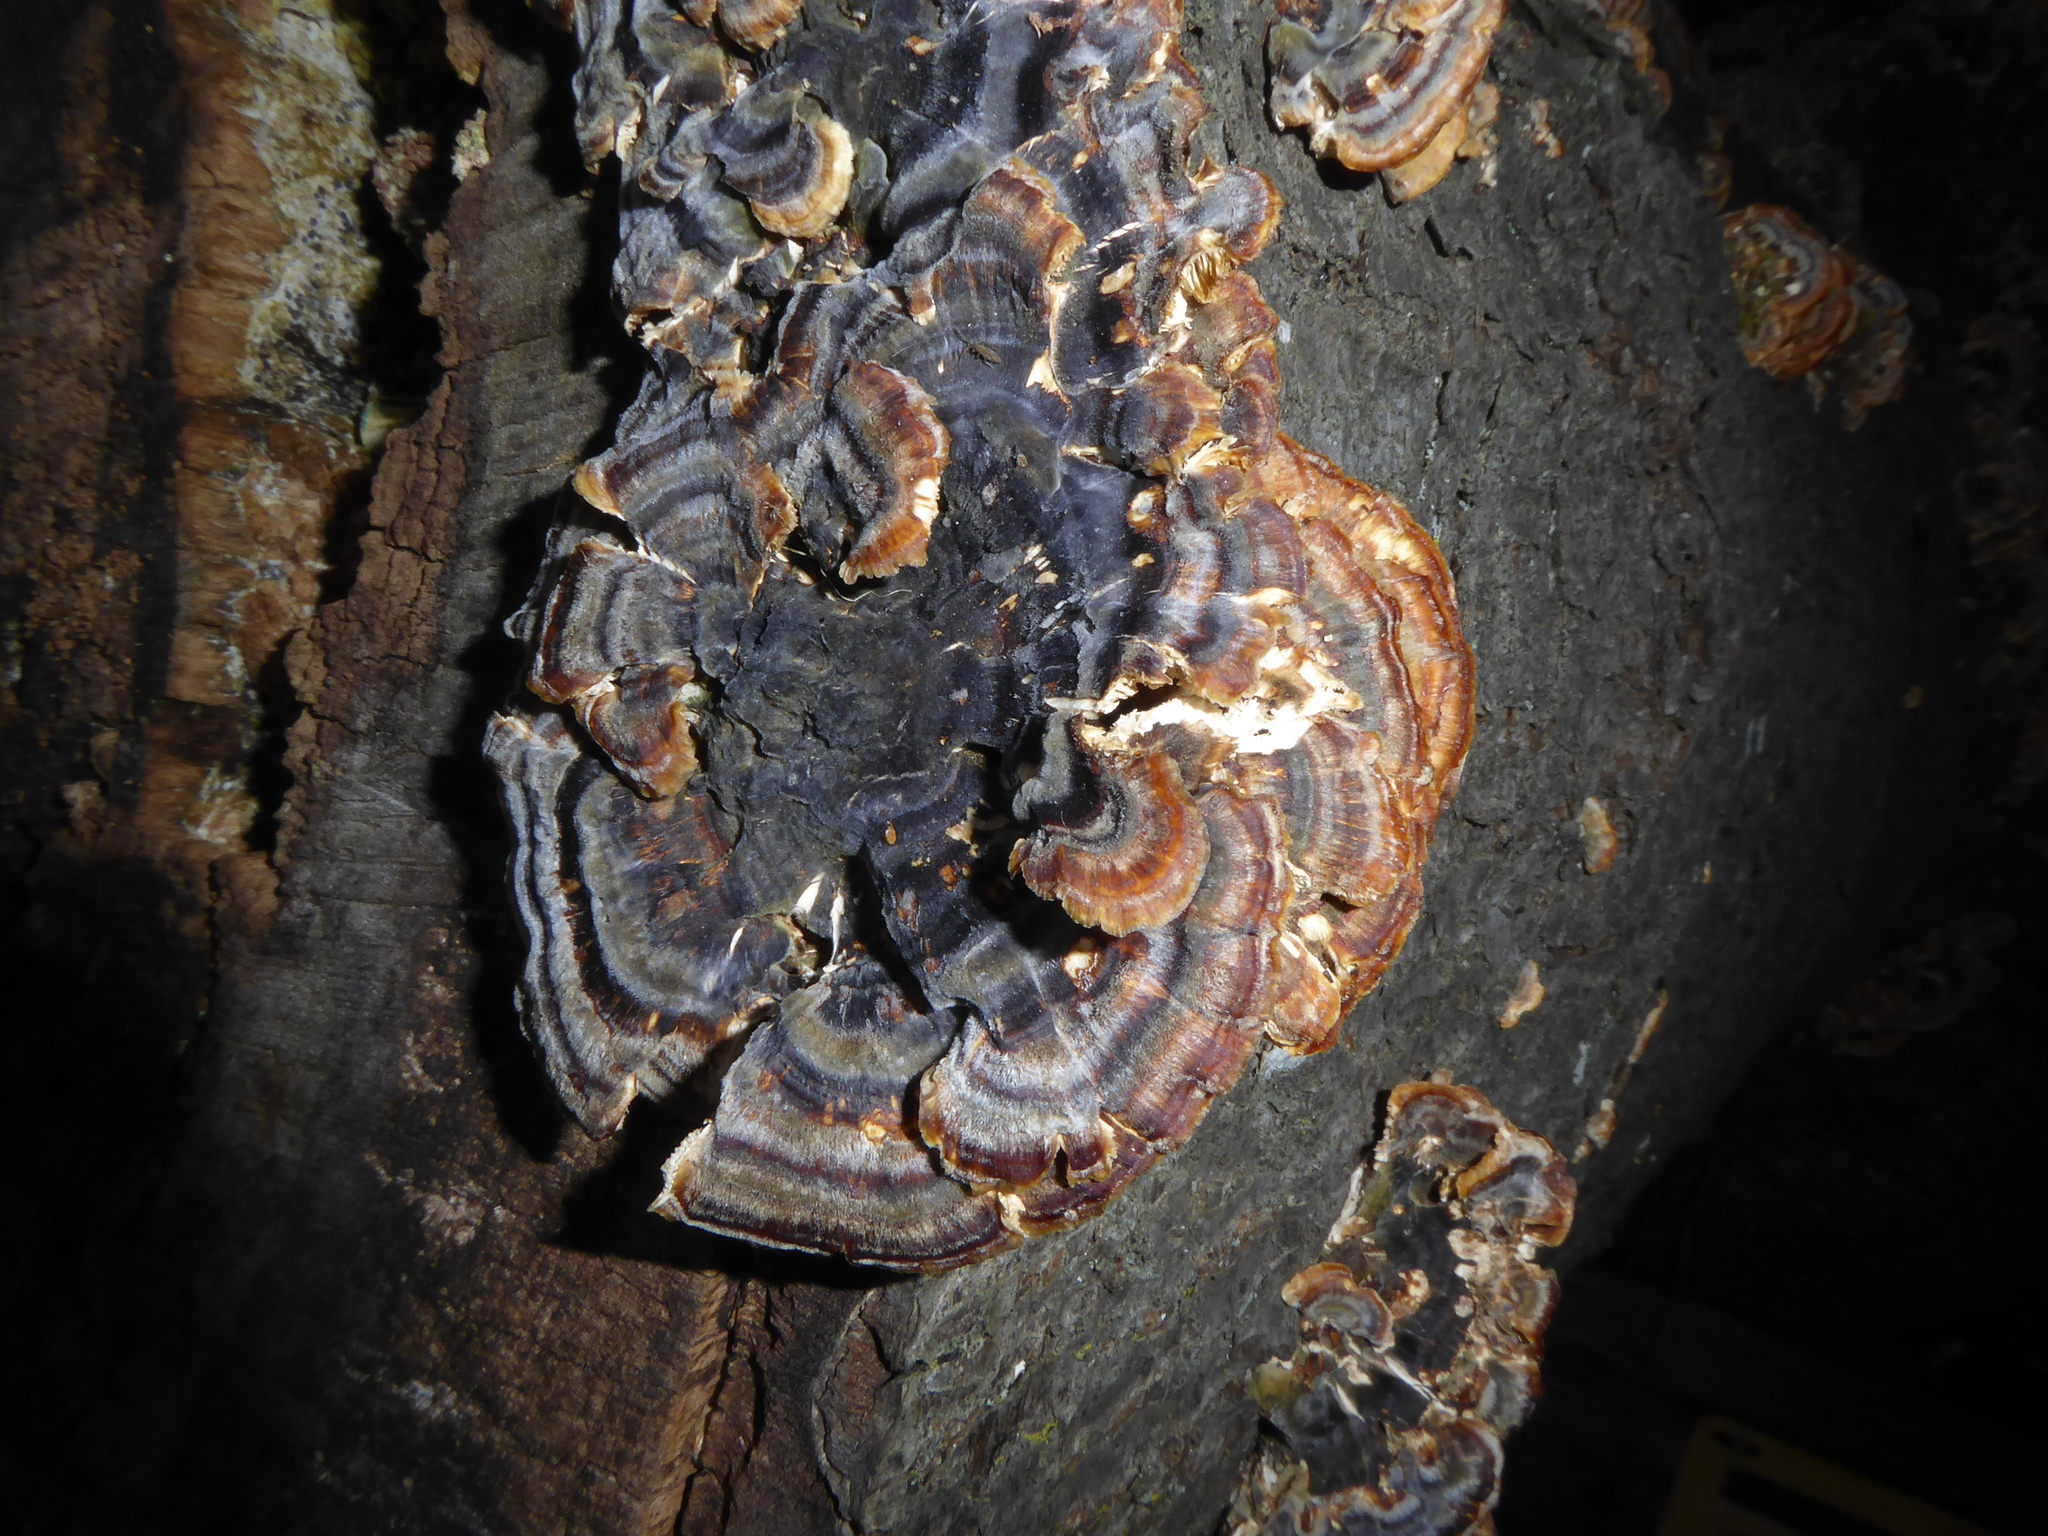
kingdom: Fungi
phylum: Basidiomycota
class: Agaricomycetes
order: Polyporales
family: Polyporaceae
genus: Trametes
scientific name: Trametes versicolor
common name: Turkeytail
